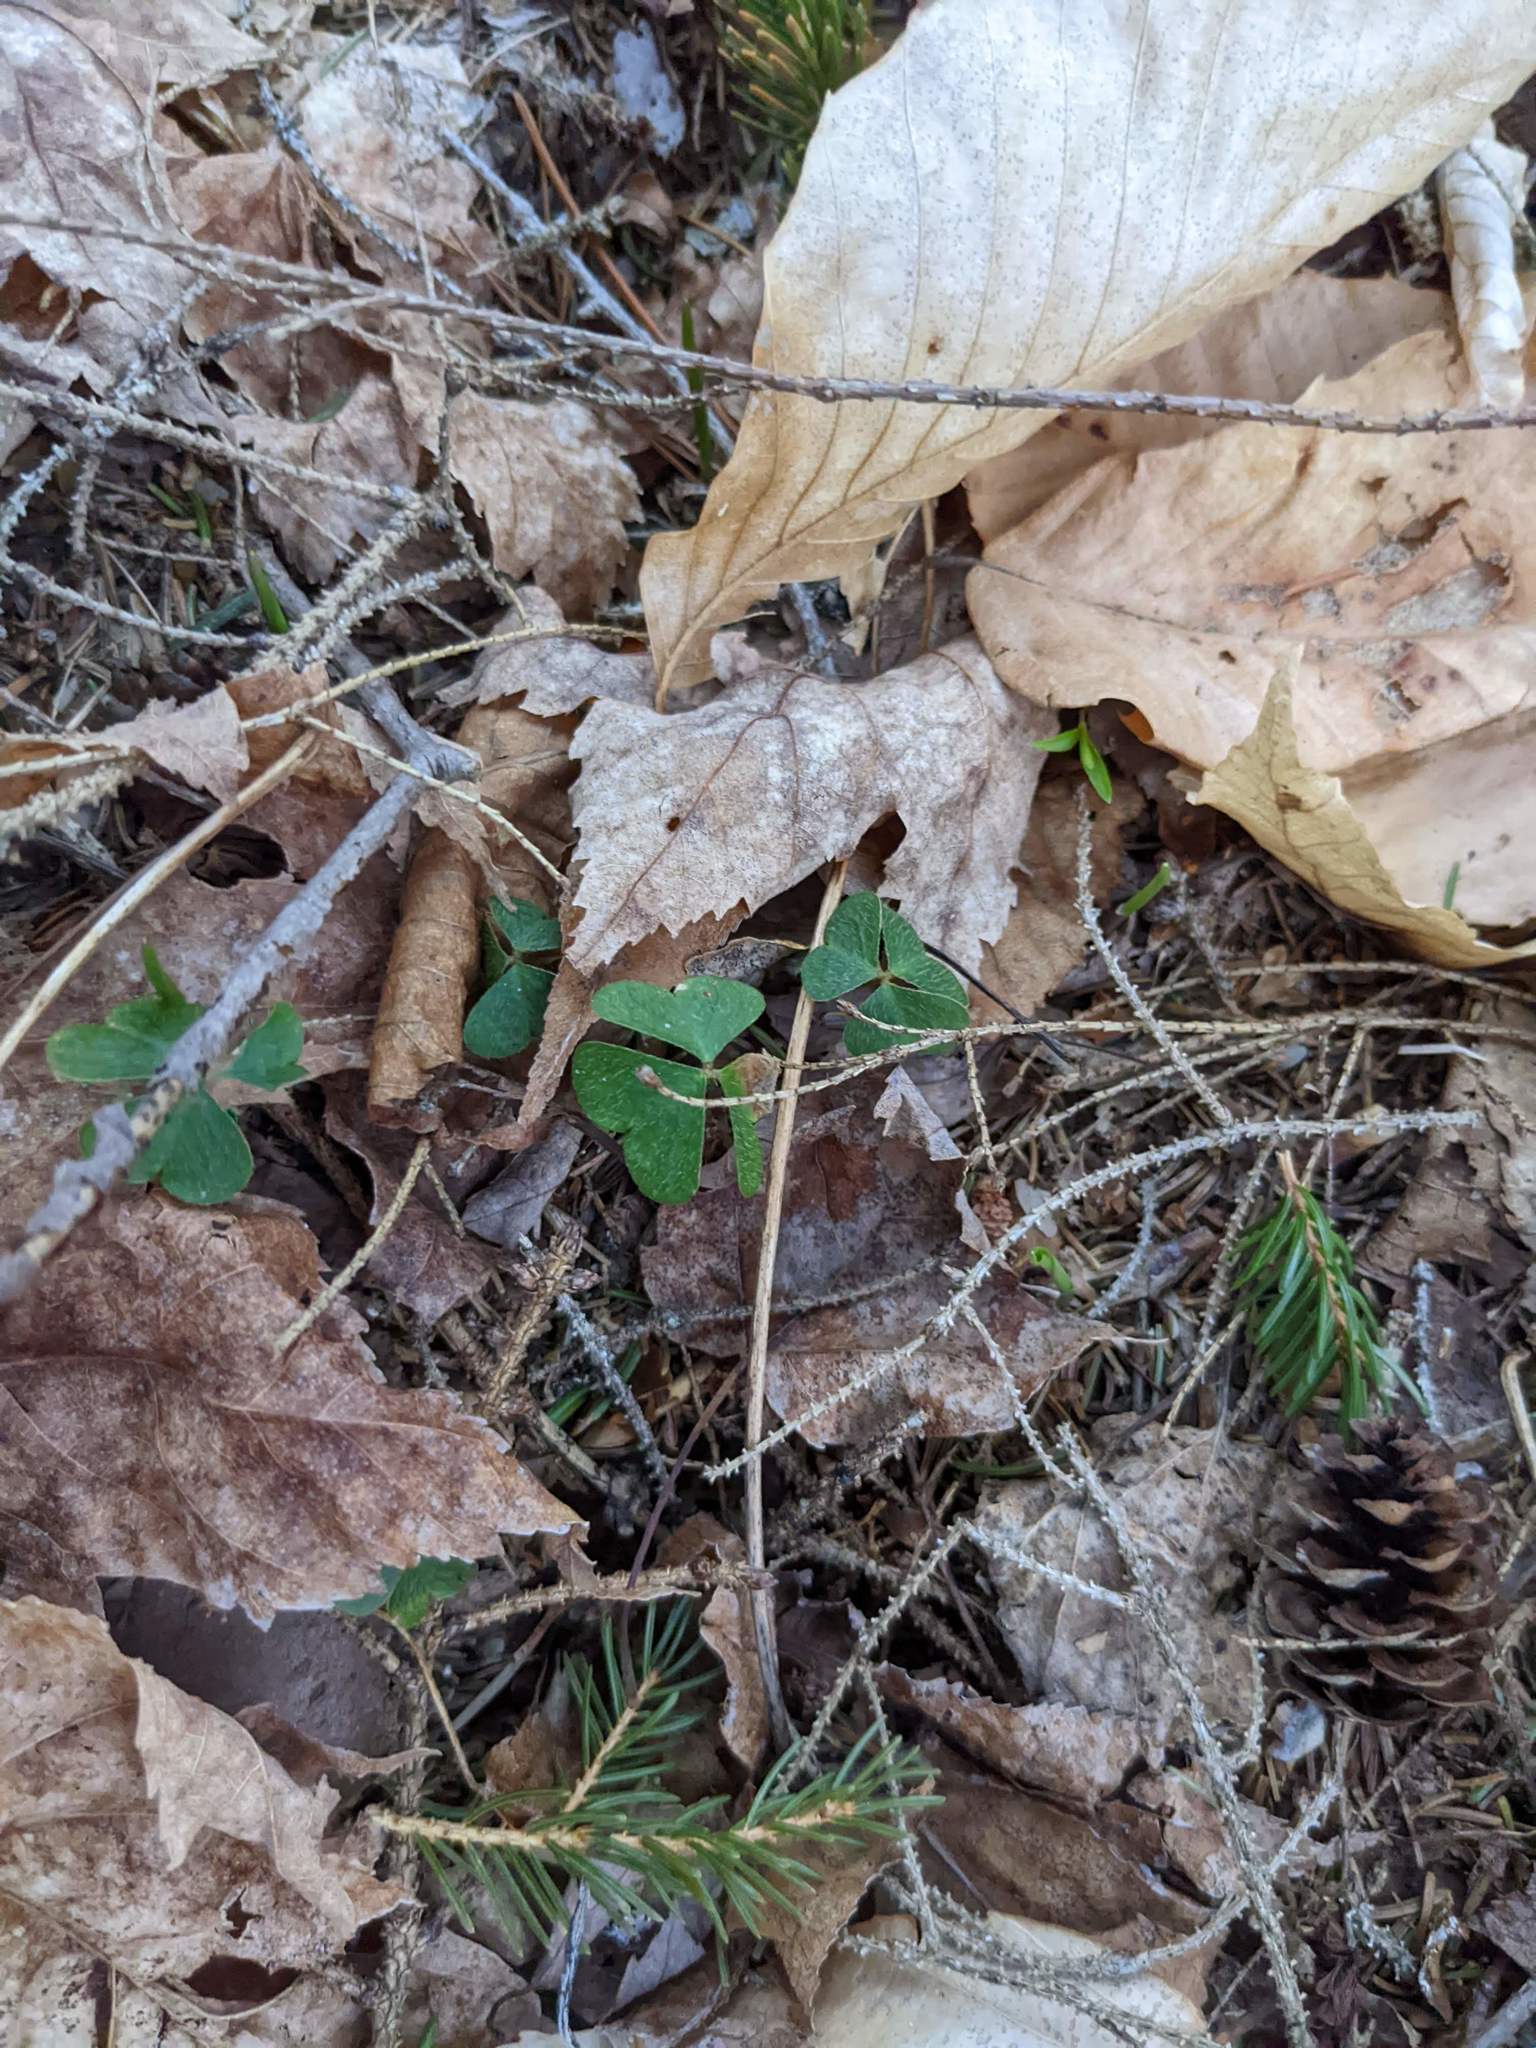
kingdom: Plantae
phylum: Tracheophyta
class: Magnoliopsida
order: Oxalidales
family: Oxalidaceae
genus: Oxalis
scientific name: Oxalis montana
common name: American wood-sorrel
